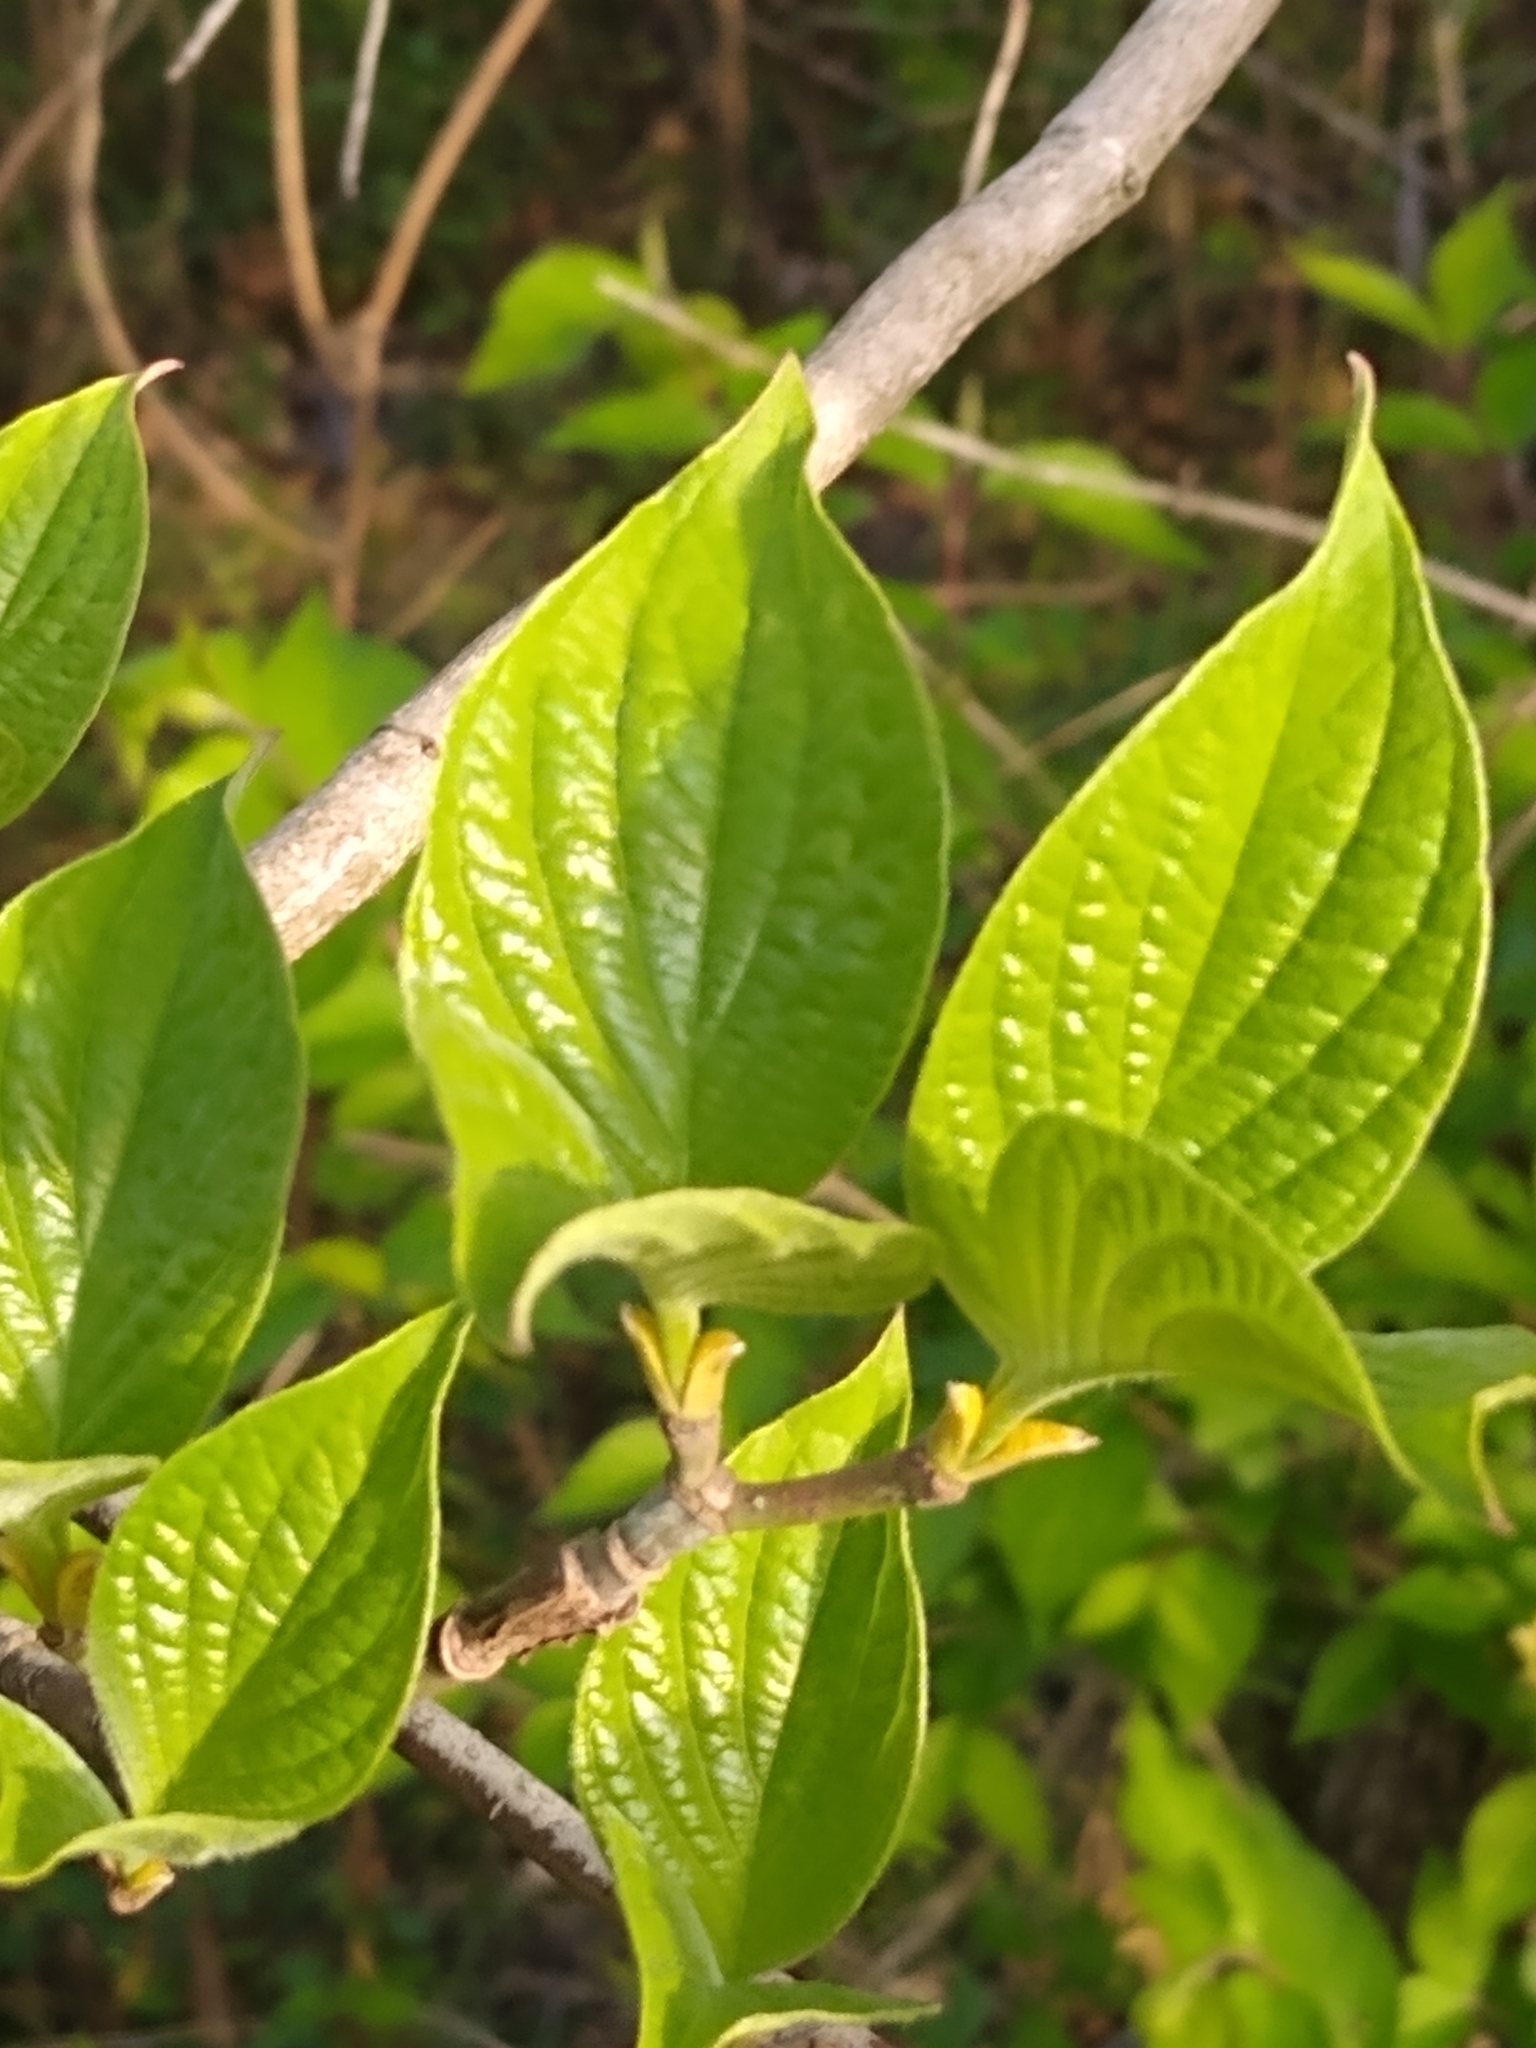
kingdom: Plantae
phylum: Tracheophyta
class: Magnoliopsida
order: Cornales
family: Cornaceae
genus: Cornus
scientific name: Cornus florida
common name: Flowering dogwood
